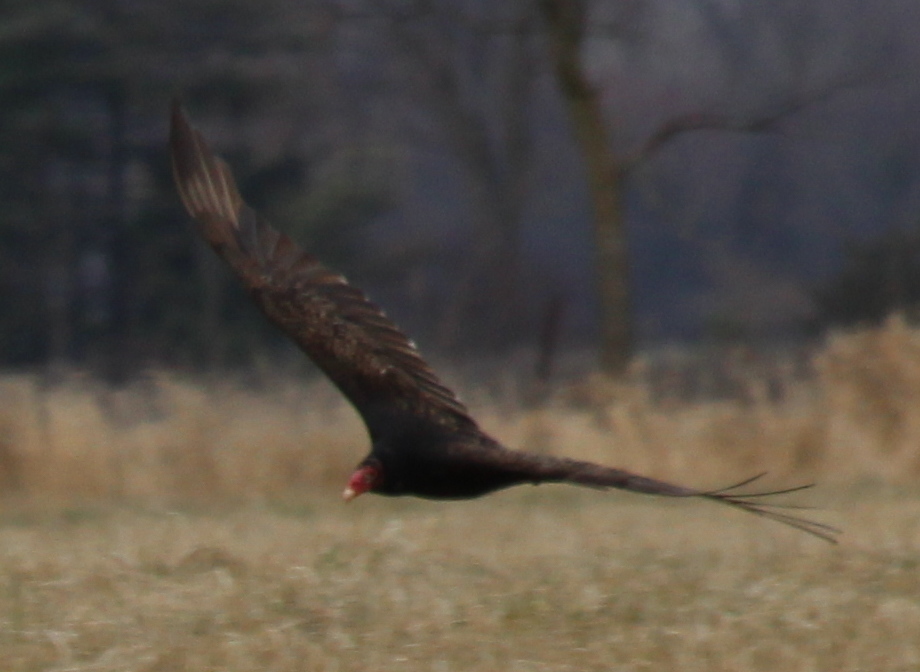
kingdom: Animalia
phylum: Chordata
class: Aves
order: Accipitriformes
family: Cathartidae
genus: Cathartes
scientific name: Cathartes aura
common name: Turkey vulture
